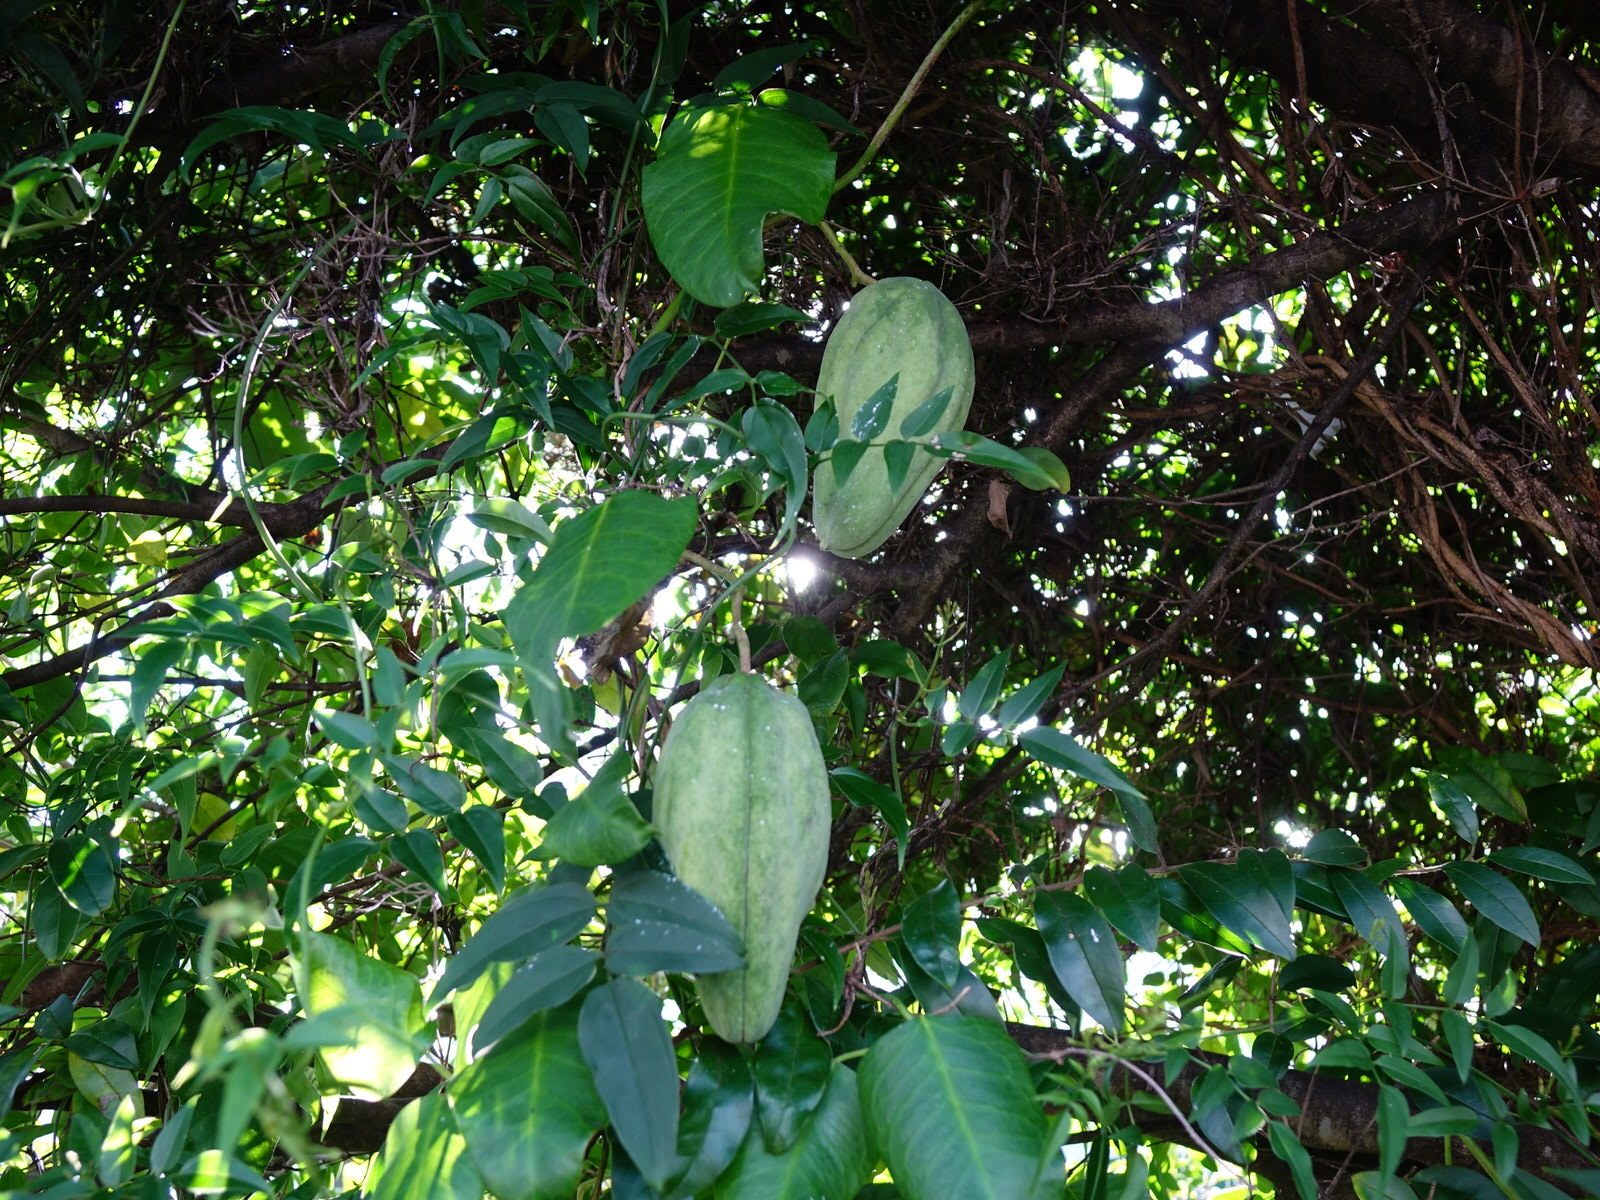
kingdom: Plantae
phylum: Tracheophyta
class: Magnoliopsida
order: Gentianales
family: Apocynaceae
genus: Araujia
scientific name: Araujia sericifera
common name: White bladderflower
